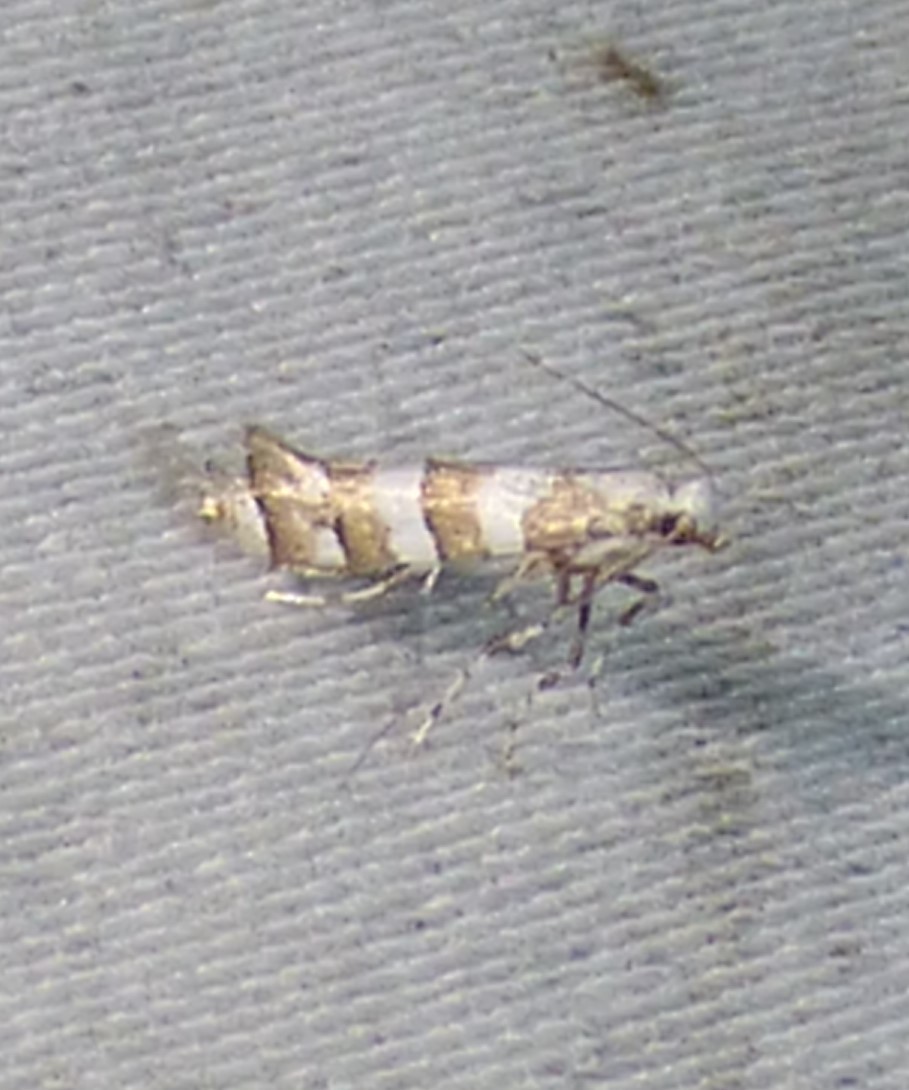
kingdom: Animalia
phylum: Arthropoda
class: Insecta
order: Lepidoptera
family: Gracillariidae
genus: Marmara
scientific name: Marmara fasciella
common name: White pine barkminer moth
